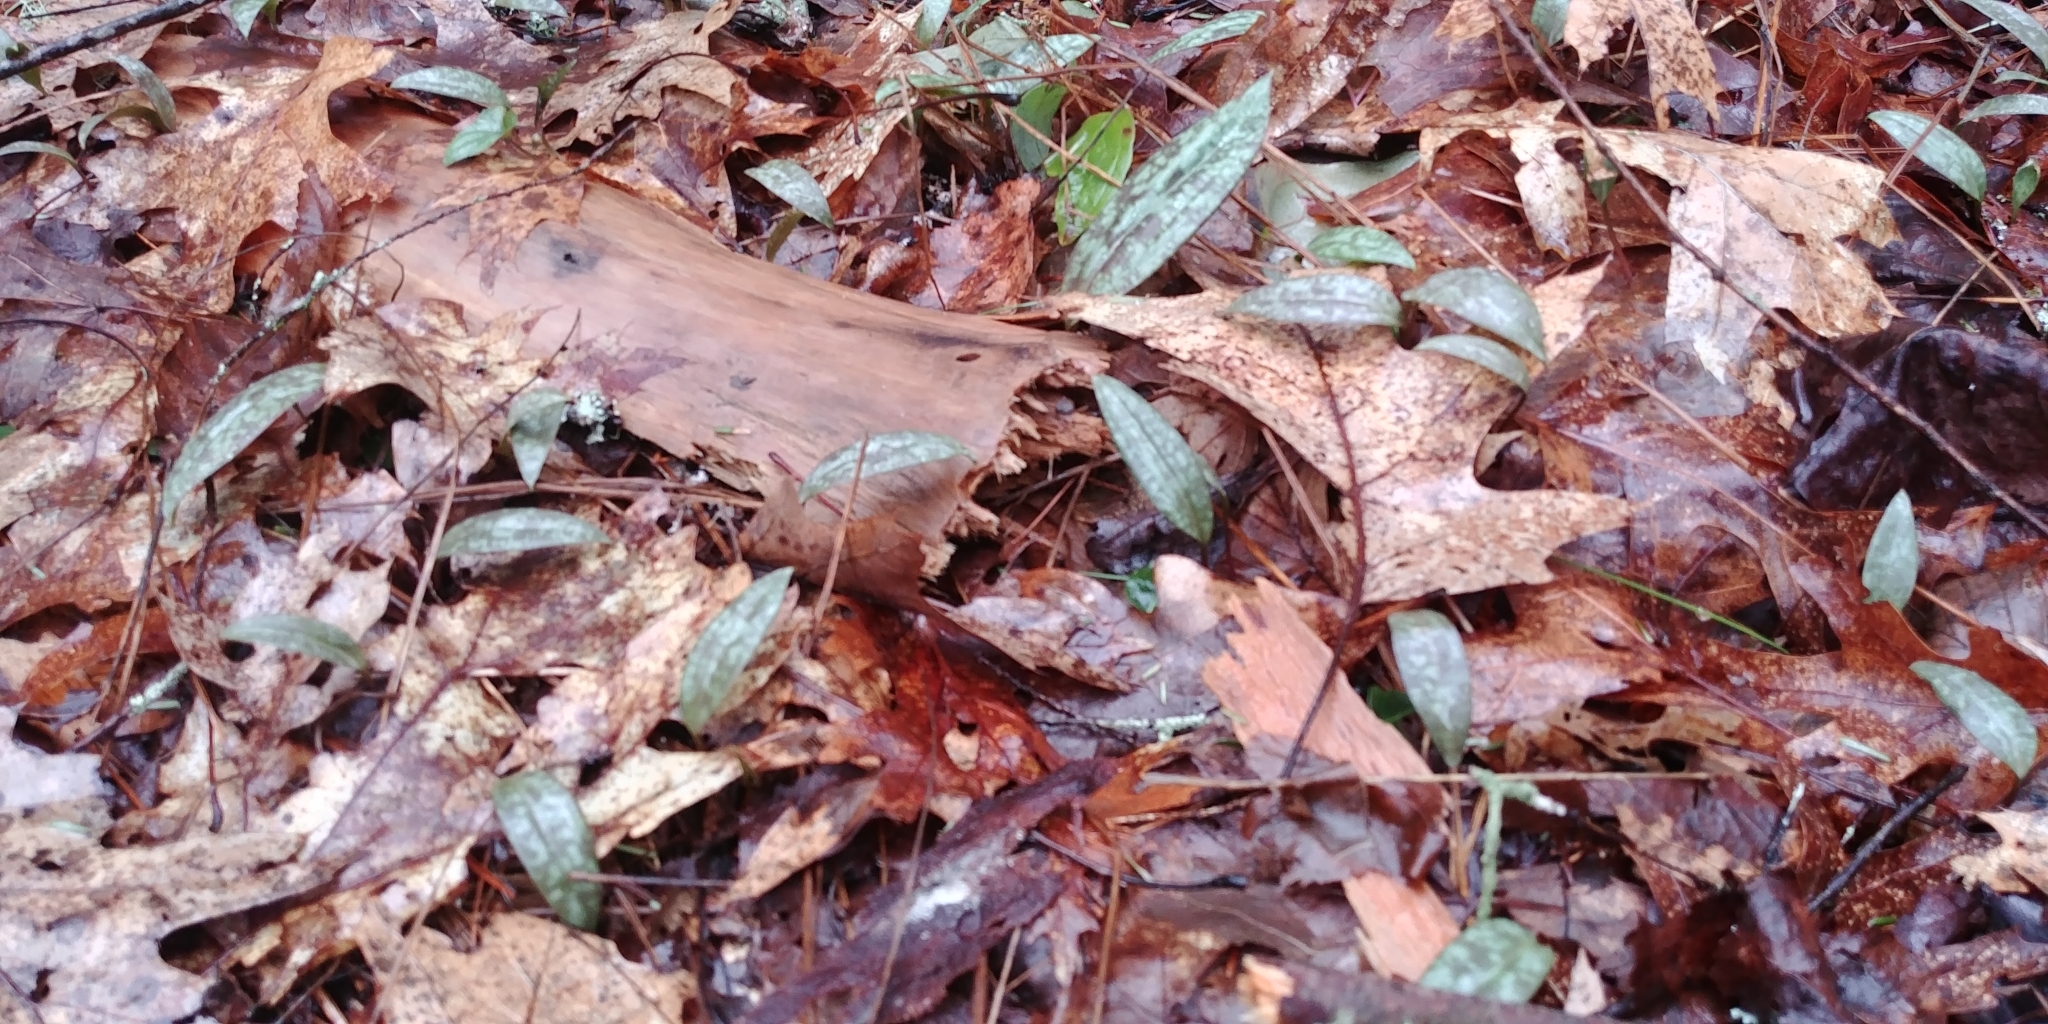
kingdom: Plantae
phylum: Tracheophyta
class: Liliopsida
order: Liliales
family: Liliaceae
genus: Erythronium
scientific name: Erythronium umbilicatum
